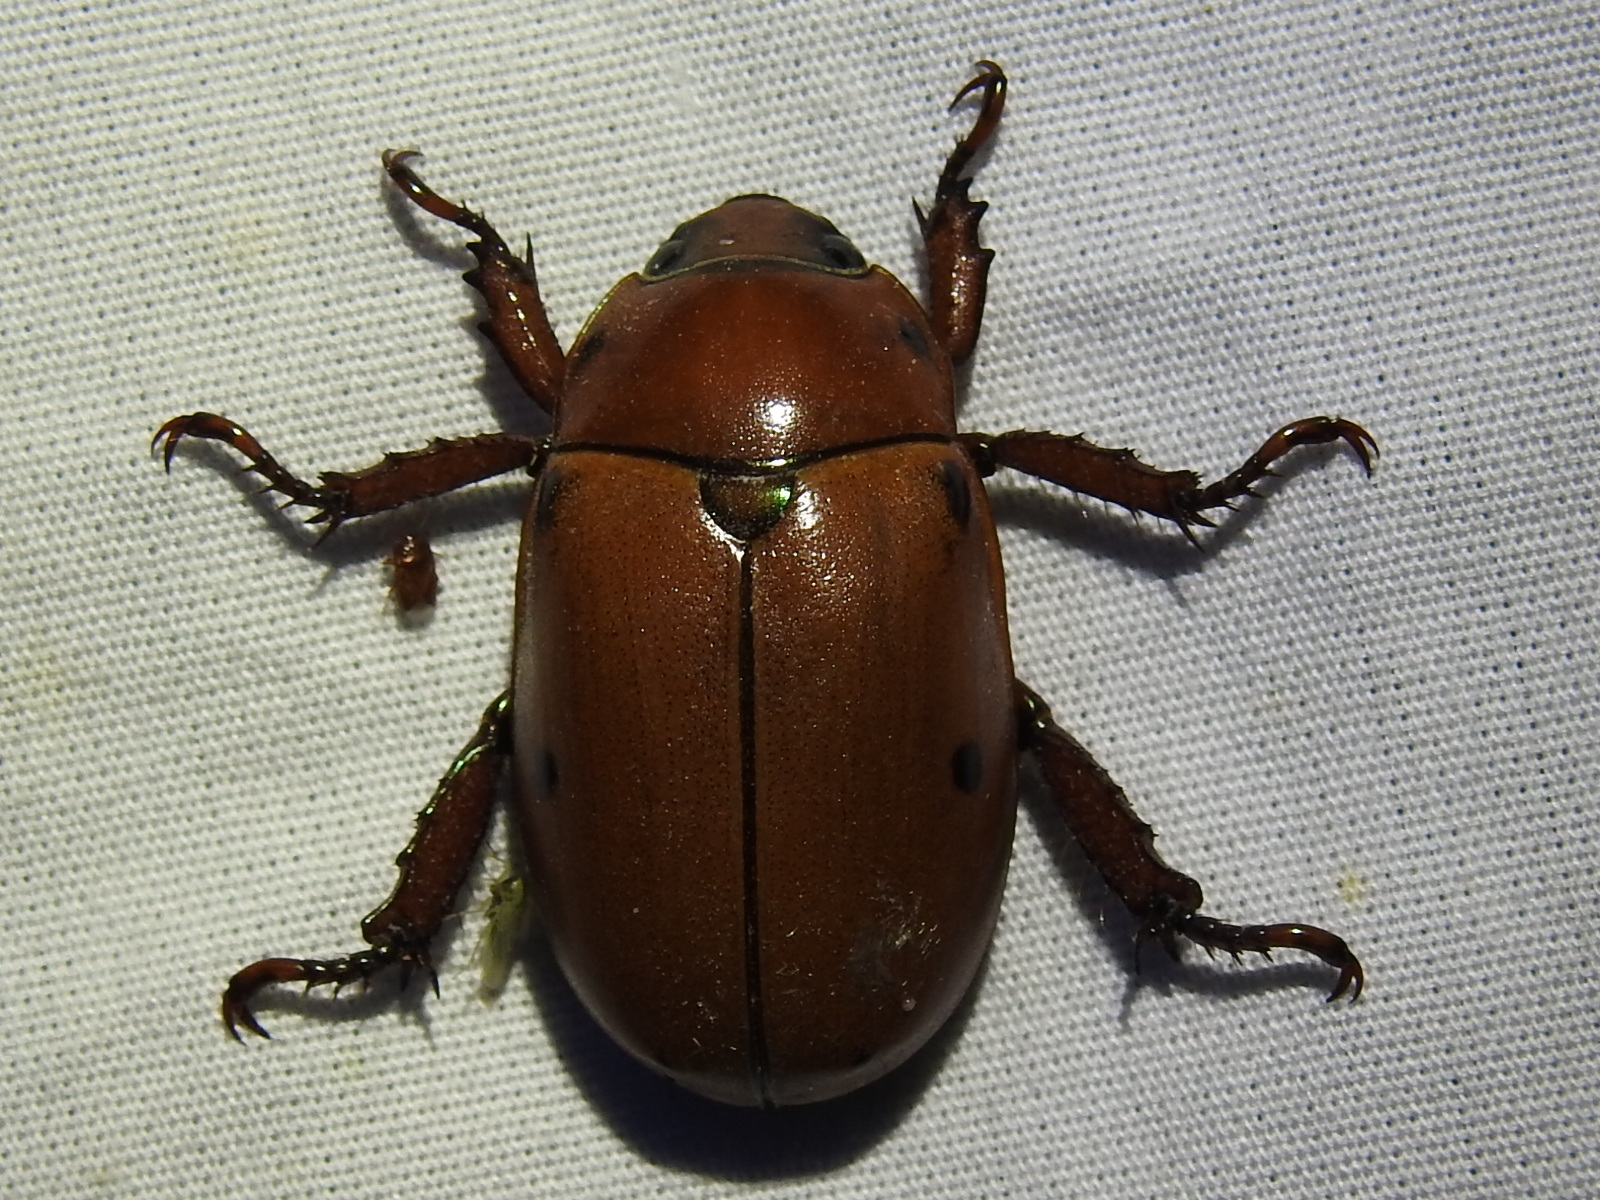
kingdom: Animalia
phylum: Arthropoda
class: Insecta
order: Coleoptera
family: Scarabaeidae
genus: Pelidnota
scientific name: Pelidnota punctata
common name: Grapevine beetle
